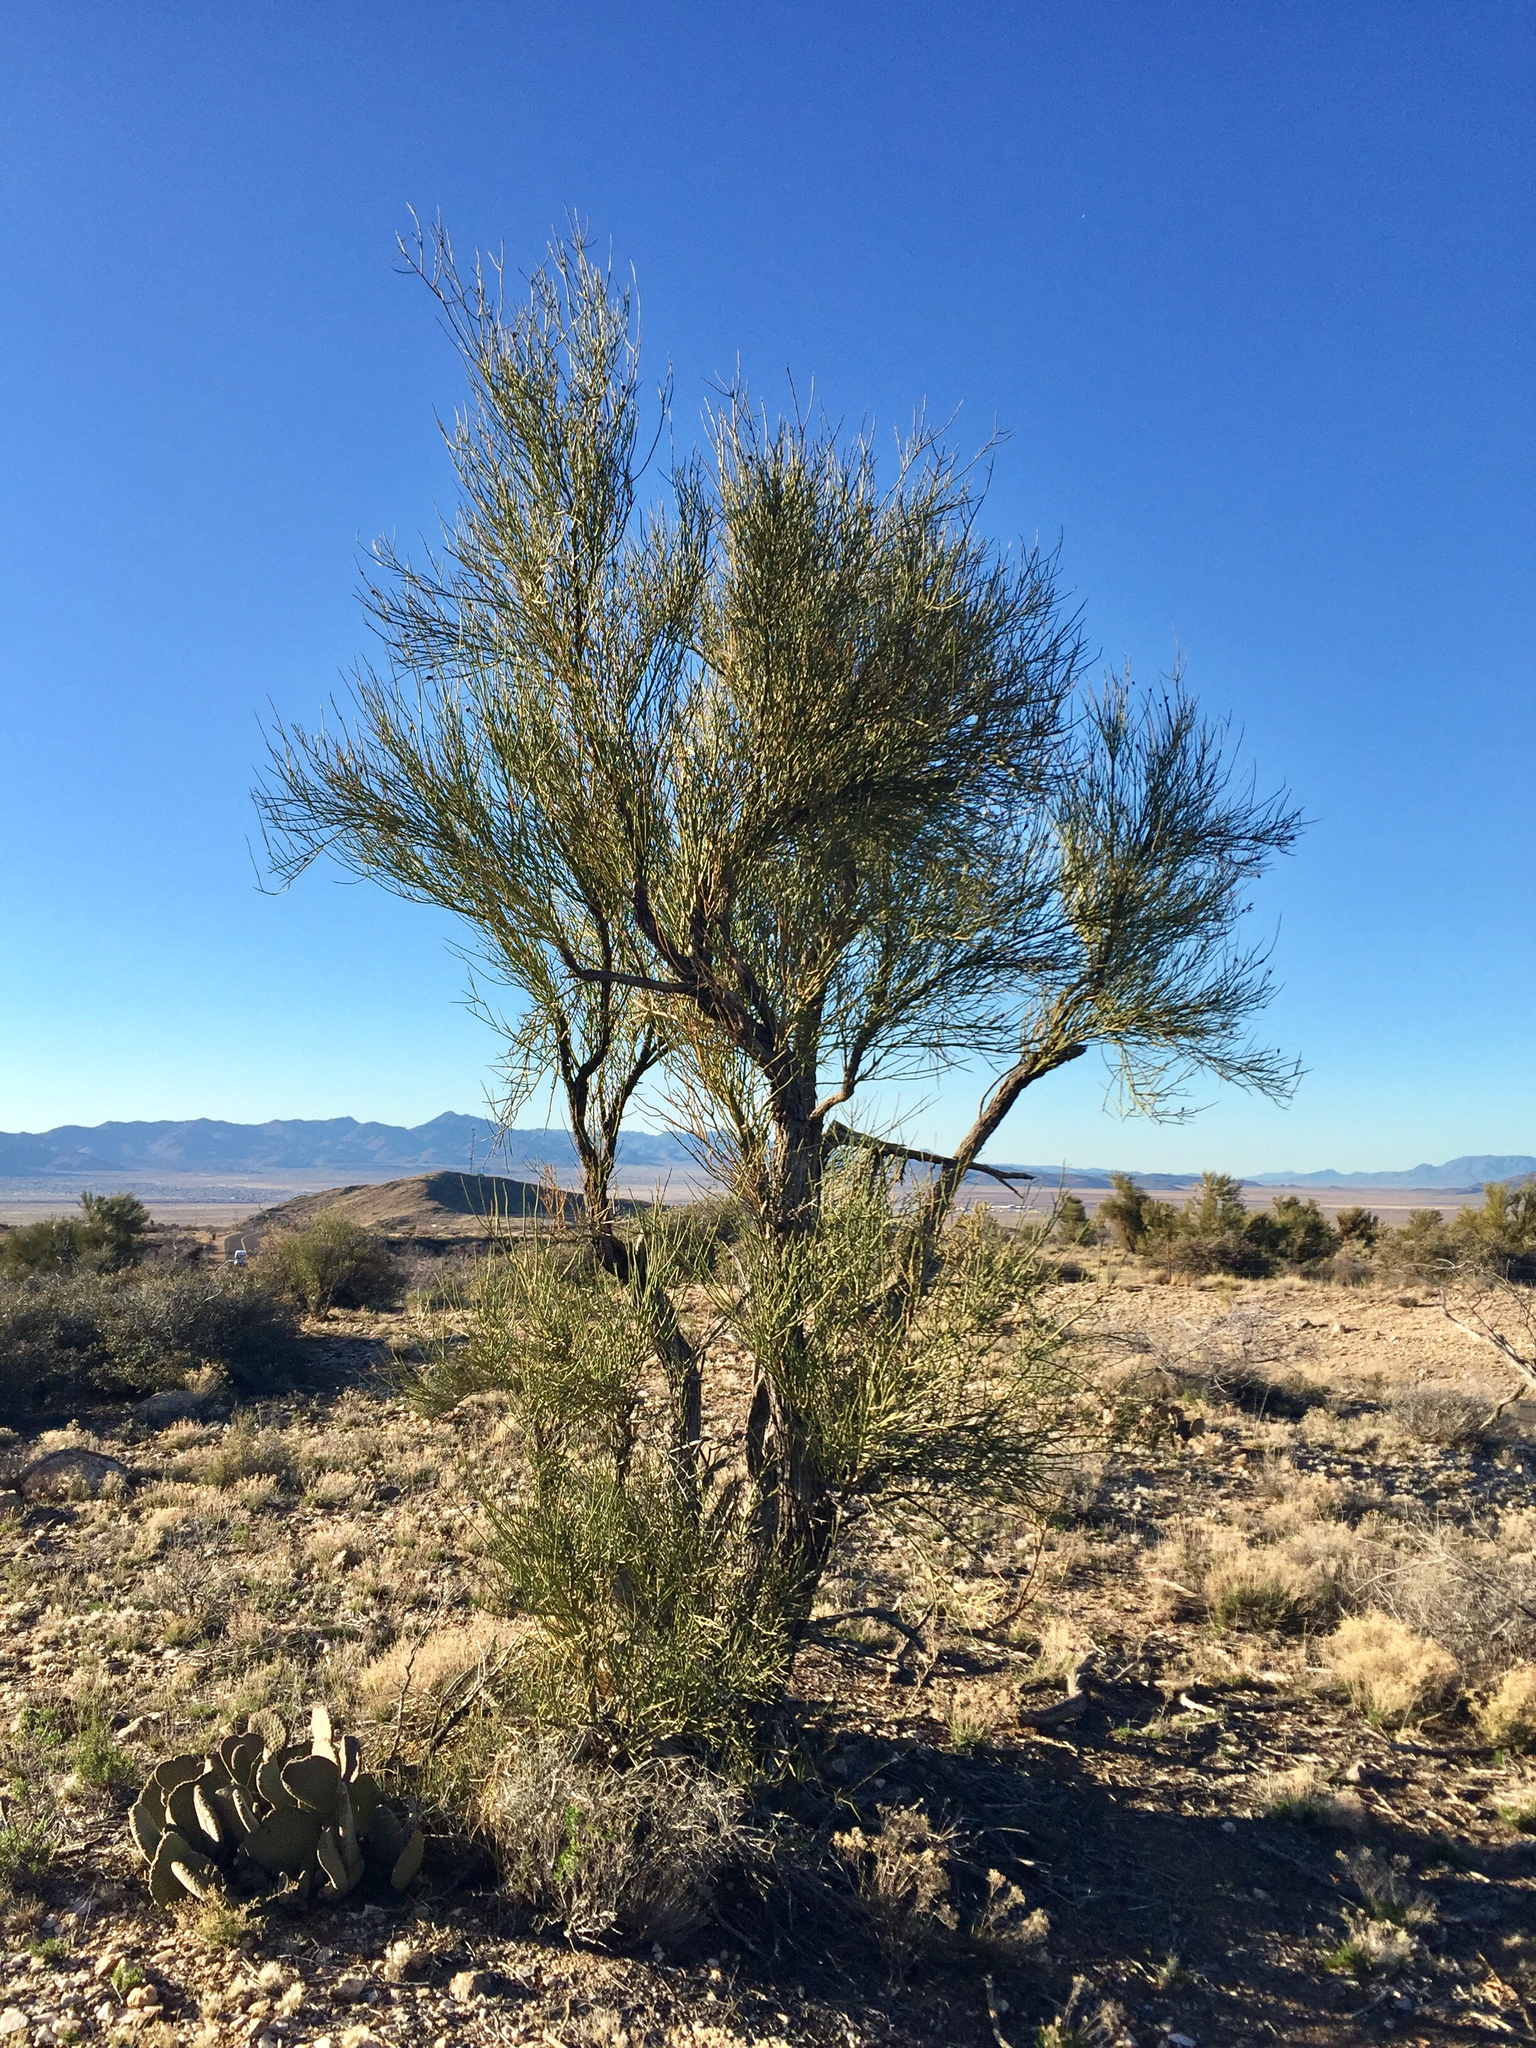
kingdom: Plantae
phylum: Tracheophyta
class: Magnoliopsida
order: Celastrales
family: Celastraceae
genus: Canotia
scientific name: Canotia holacantha
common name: Crucifixion thorns
